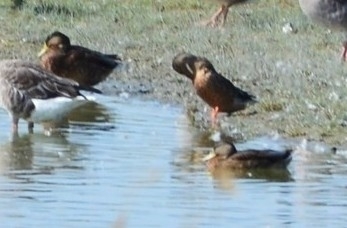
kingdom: Animalia
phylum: Chordata
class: Aves
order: Anseriformes
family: Anatidae
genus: Anas
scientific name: Anas platyrhynchos
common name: Mallard
